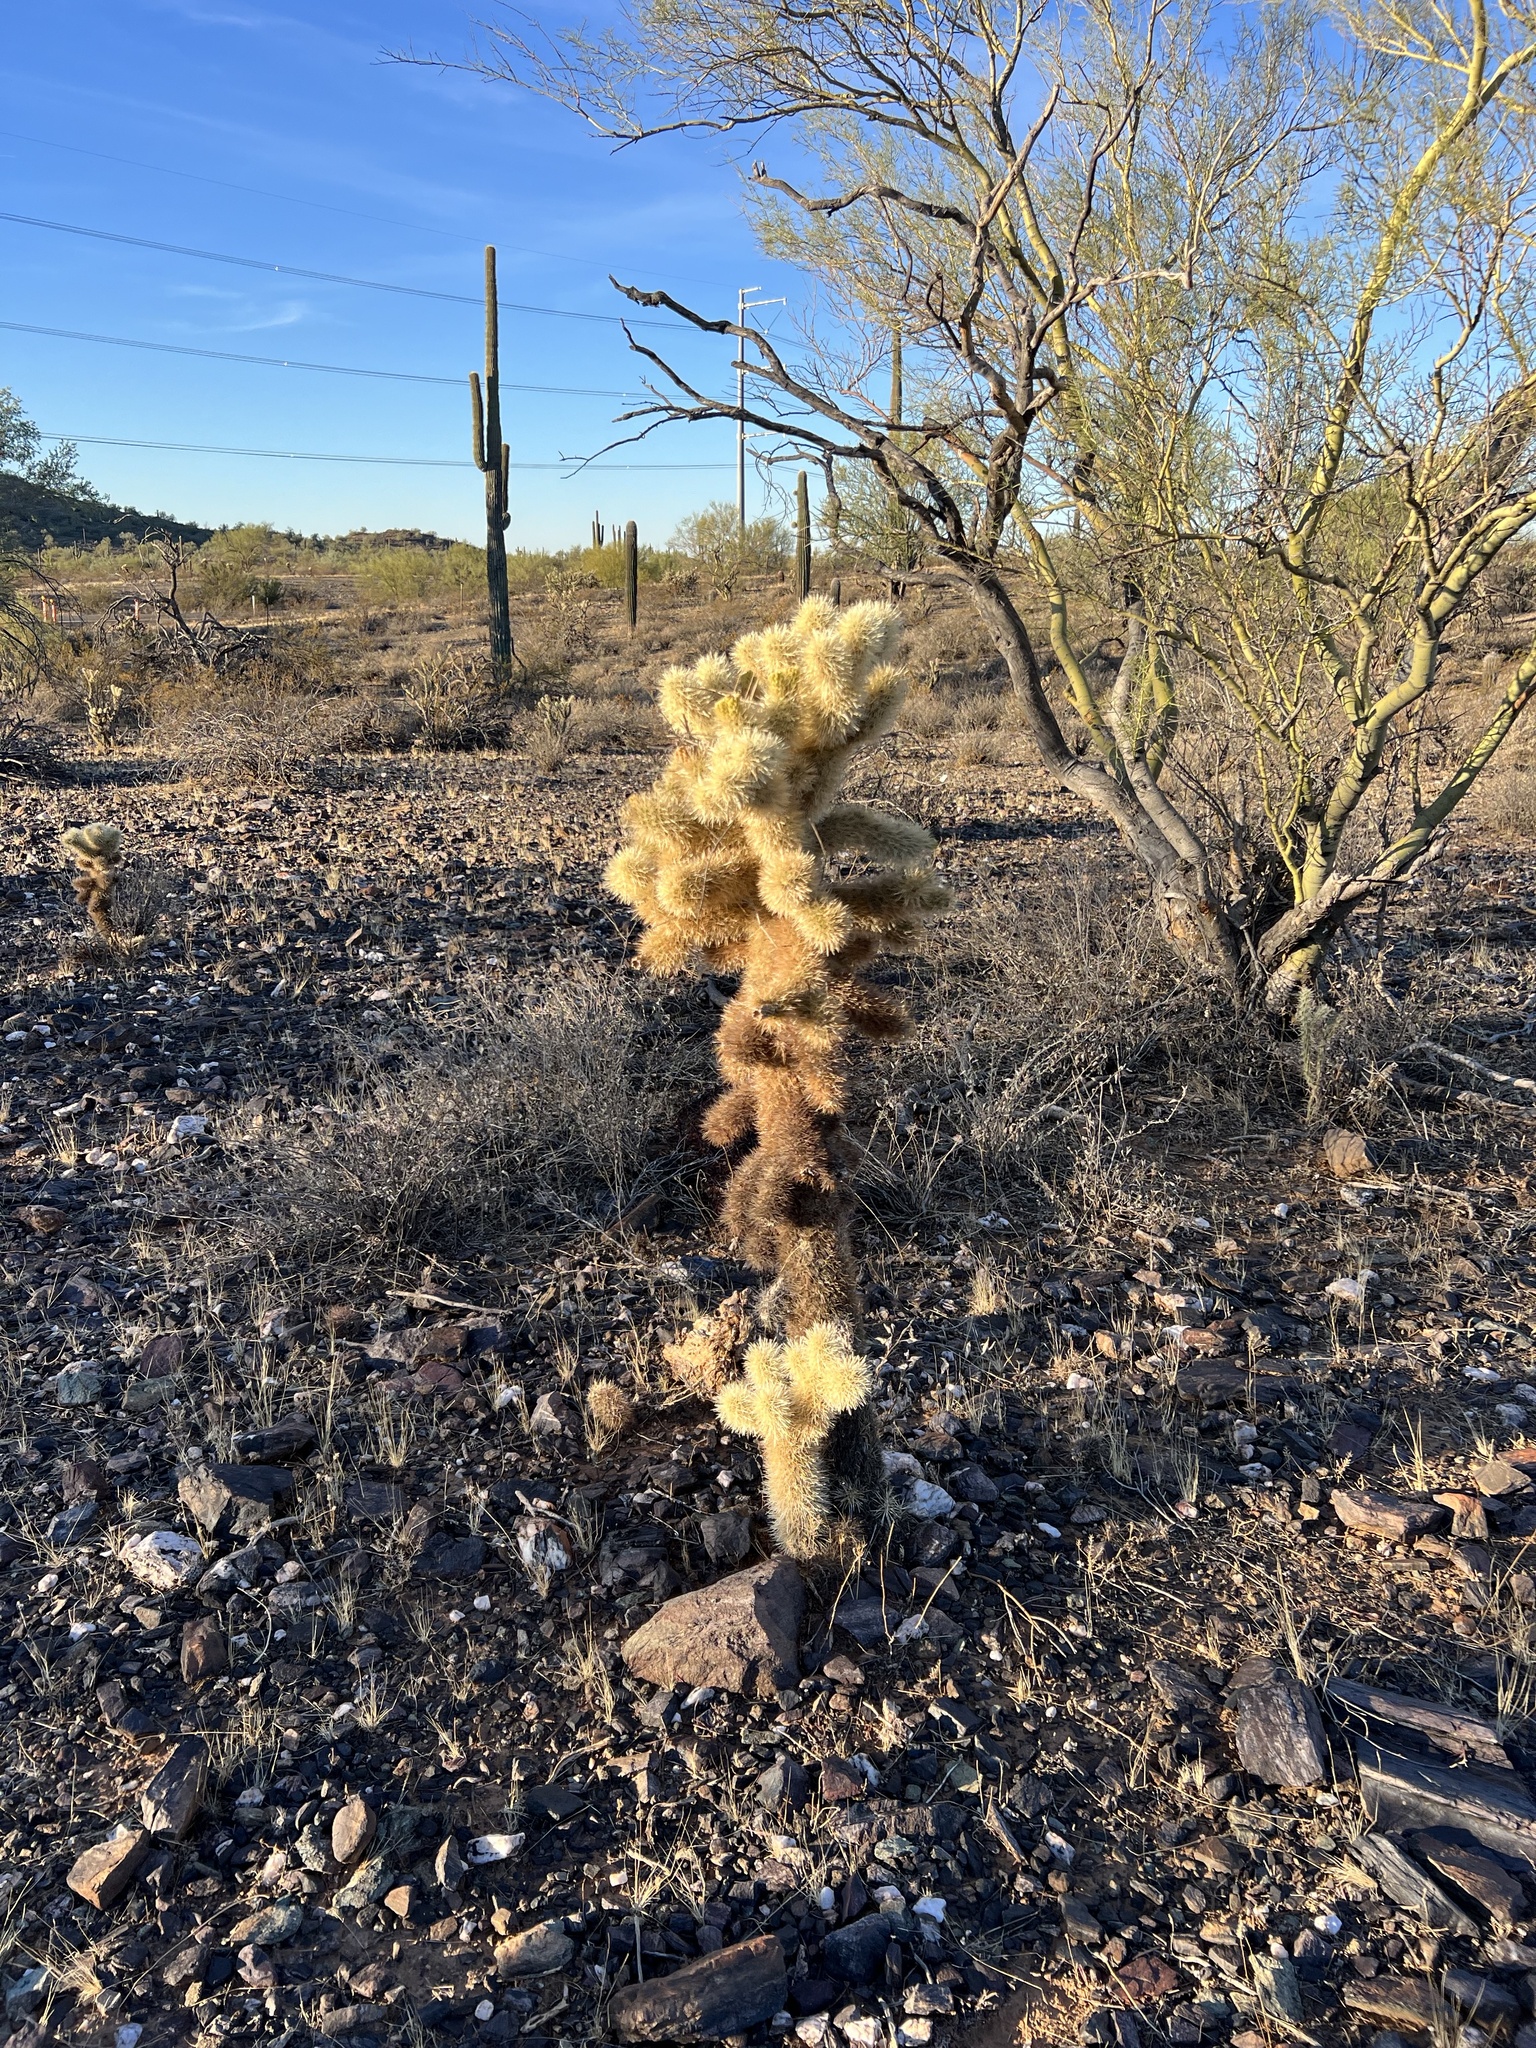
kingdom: Plantae
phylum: Tracheophyta
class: Magnoliopsida
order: Caryophyllales
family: Cactaceae
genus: Cylindropuntia
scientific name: Cylindropuntia fosbergii
